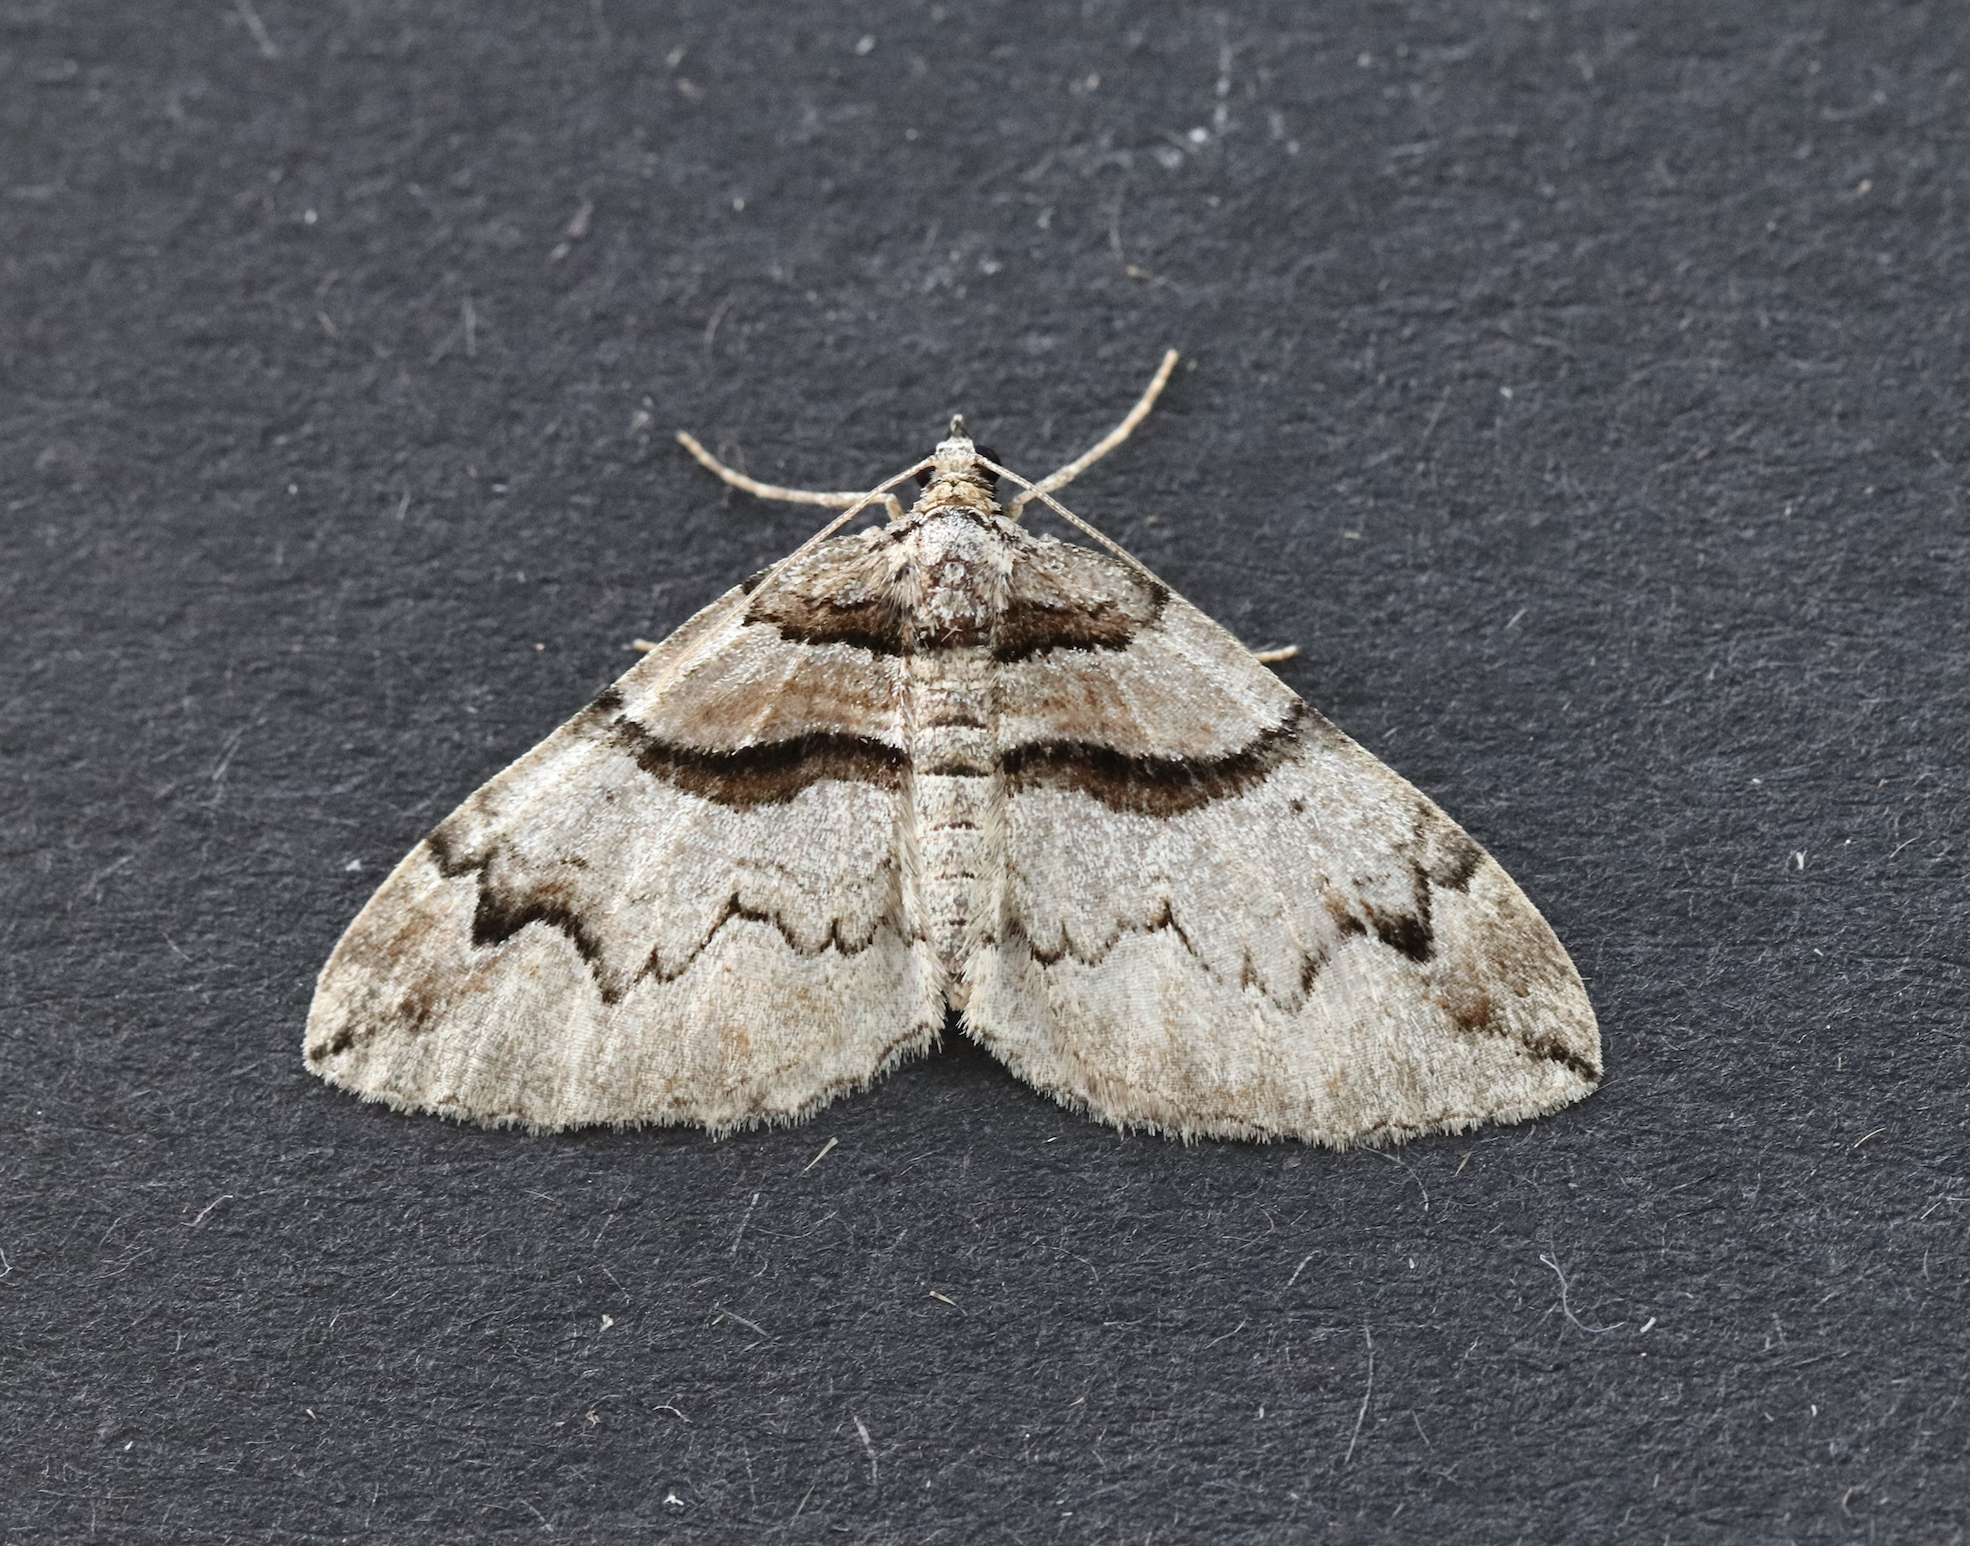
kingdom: Animalia
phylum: Arthropoda
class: Insecta
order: Lepidoptera
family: Geometridae
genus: Pareulype
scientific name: Pareulype berberata
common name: Barberry carpet
